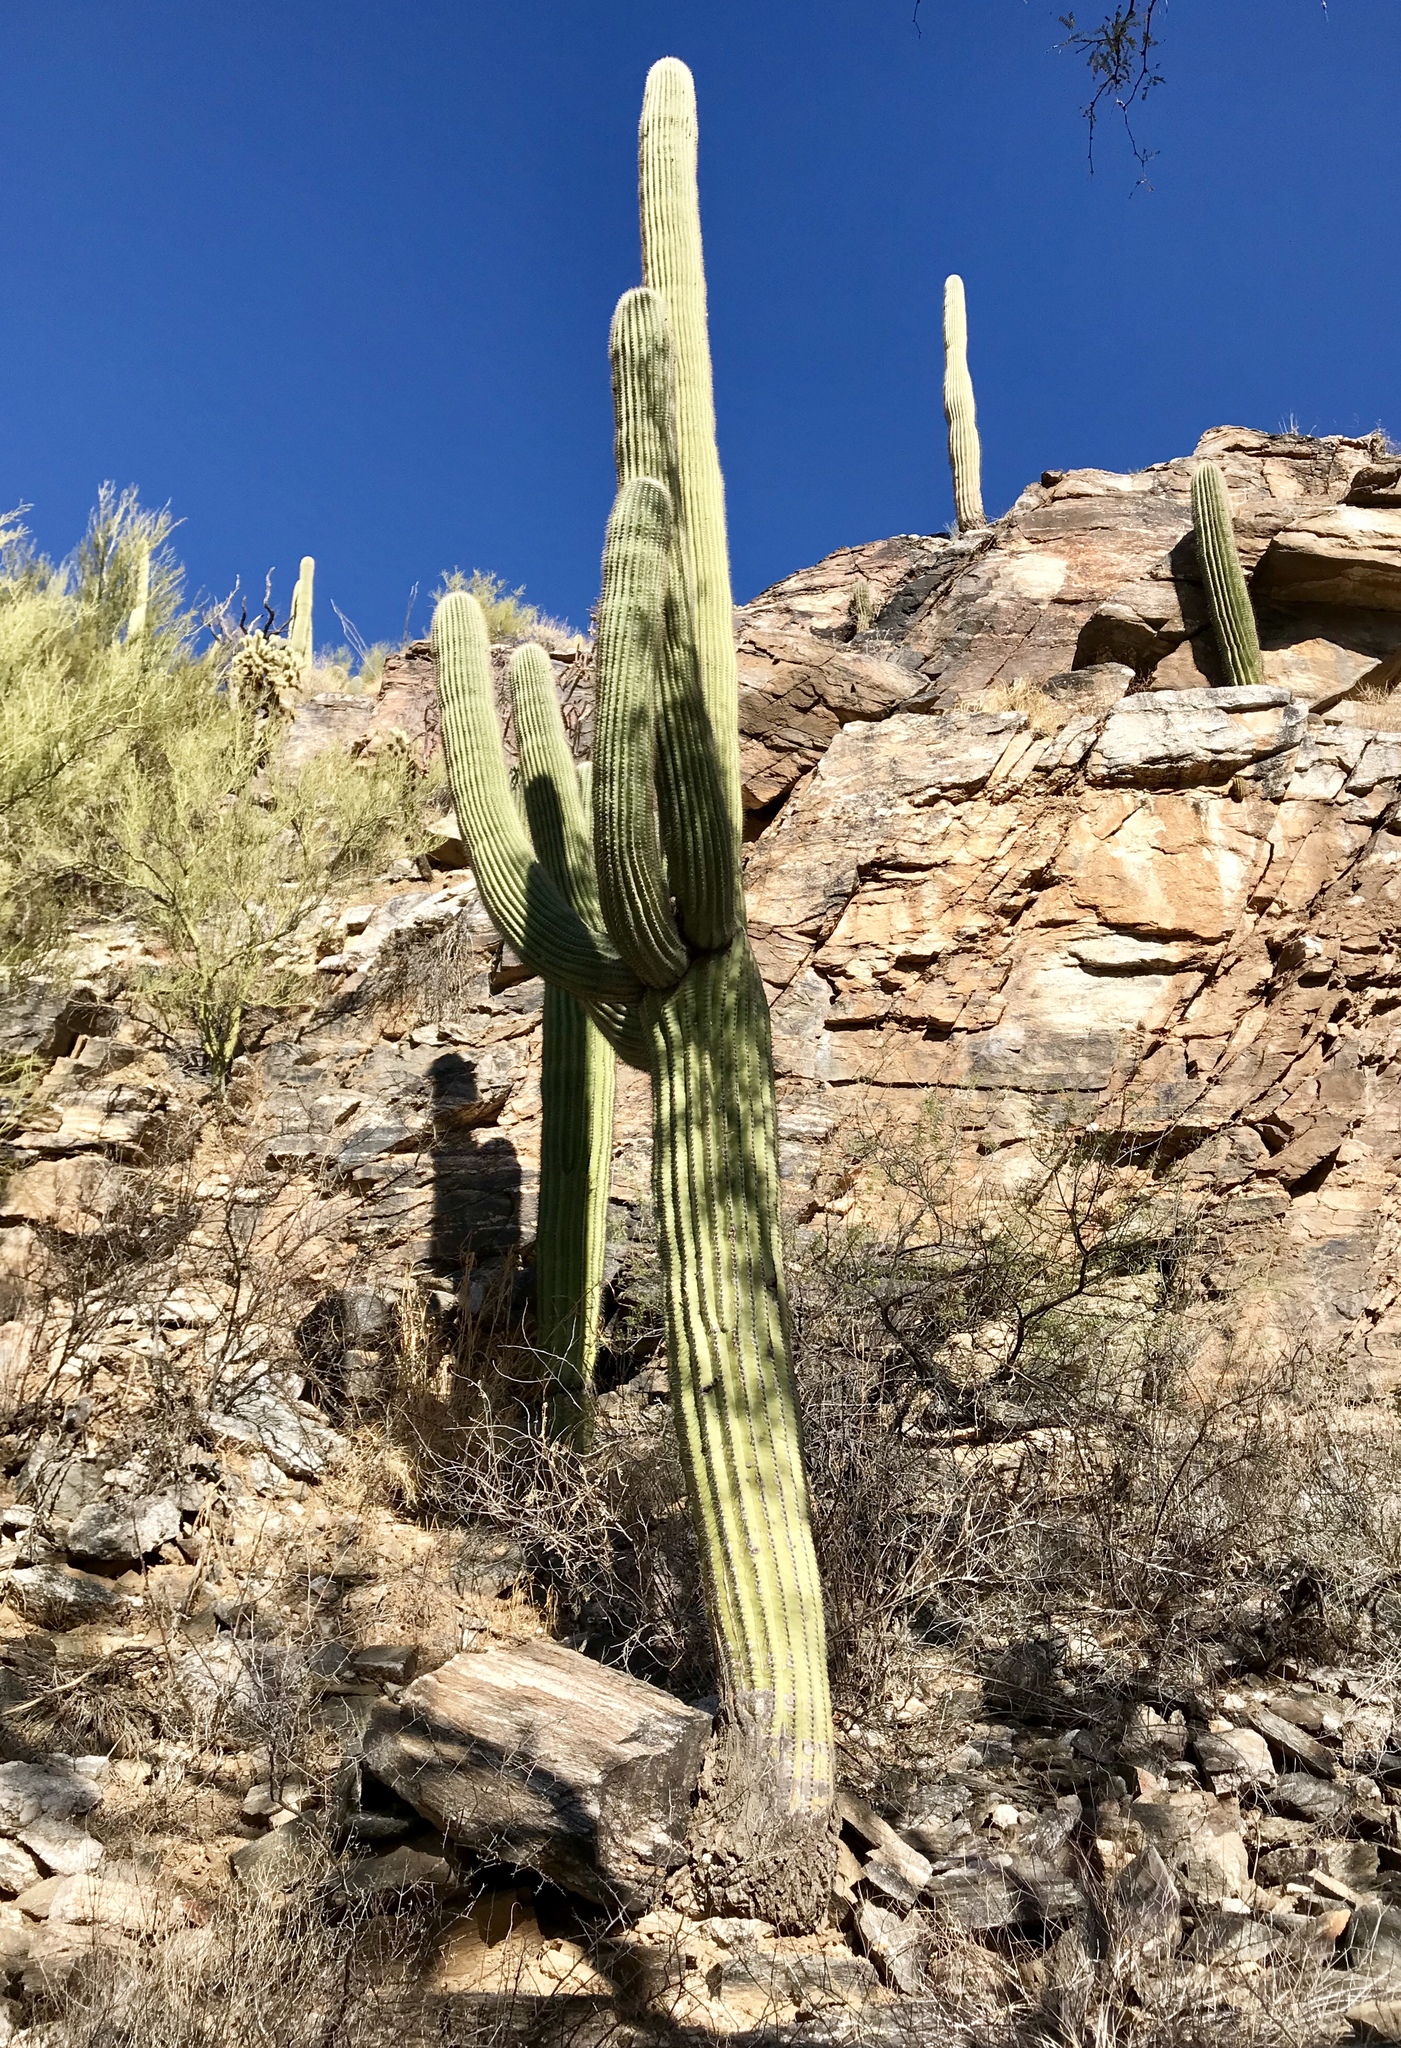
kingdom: Plantae
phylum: Tracheophyta
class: Magnoliopsida
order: Caryophyllales
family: Cactaceae
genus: Carnegiea
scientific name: Carnegiea gigantea
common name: Saguaro
